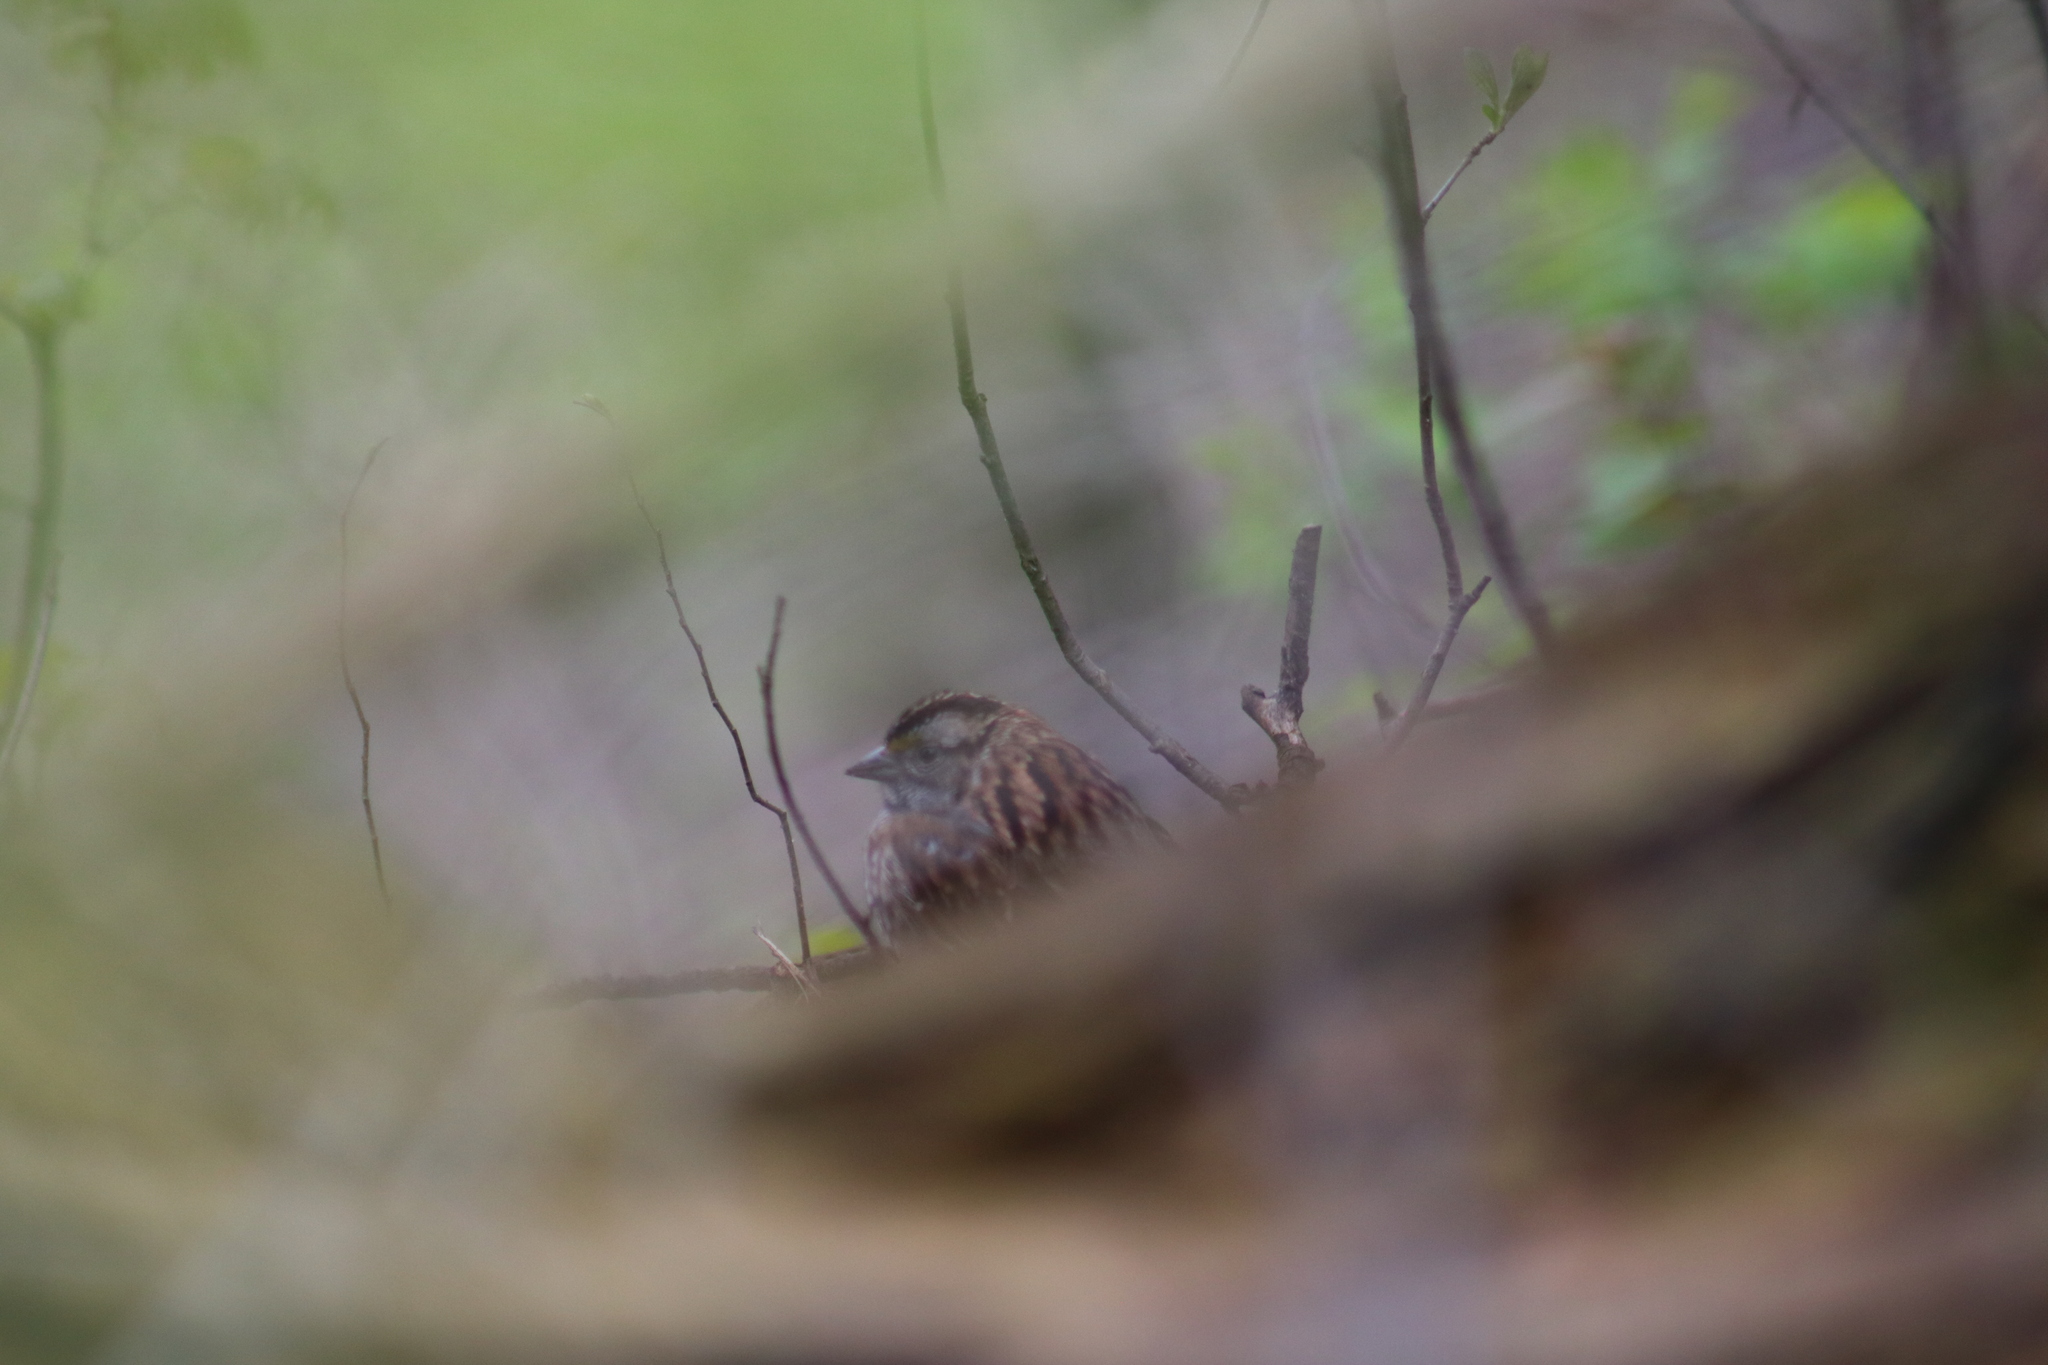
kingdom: Animalia
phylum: Chordata
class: Aves
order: Passeriformes
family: Passerellidae
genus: Zonotrichia
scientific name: Zonotrichia albicollis
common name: White-throated sparrow
